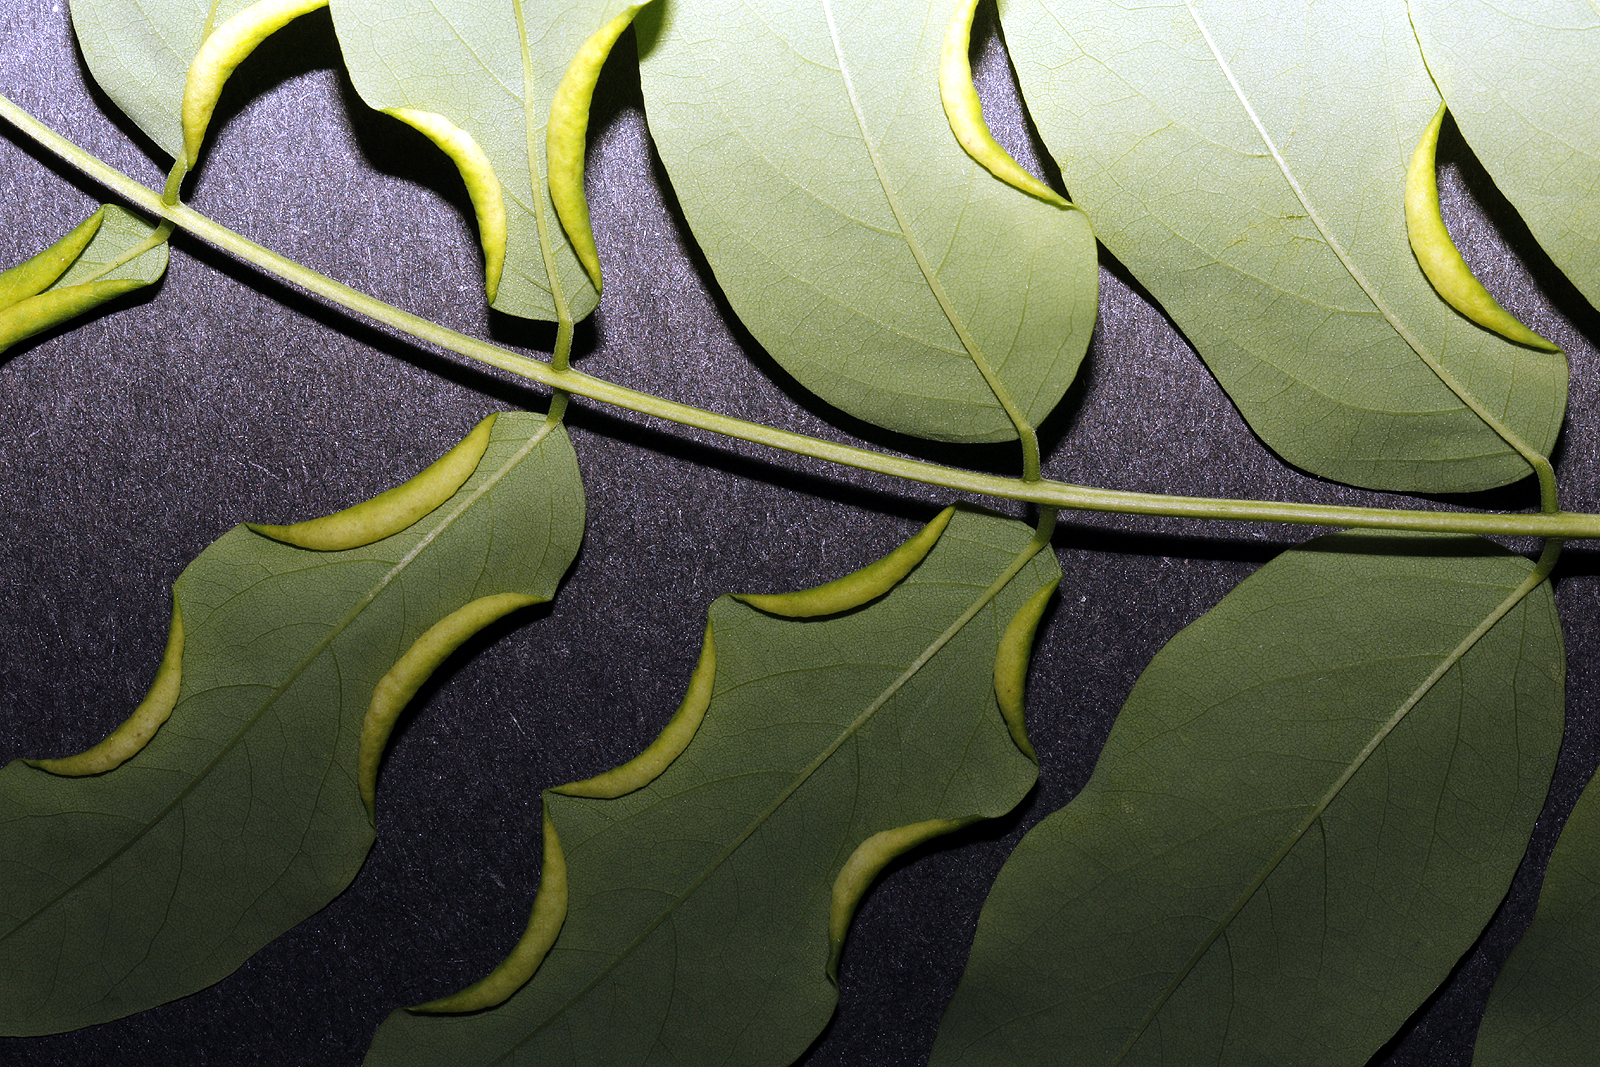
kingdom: Plantae
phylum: Tracheophyta
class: Magnoliopsida
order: Fabales
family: Fabaceae
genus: Robinia
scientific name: Robinia pseudoacacia
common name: Black locust
